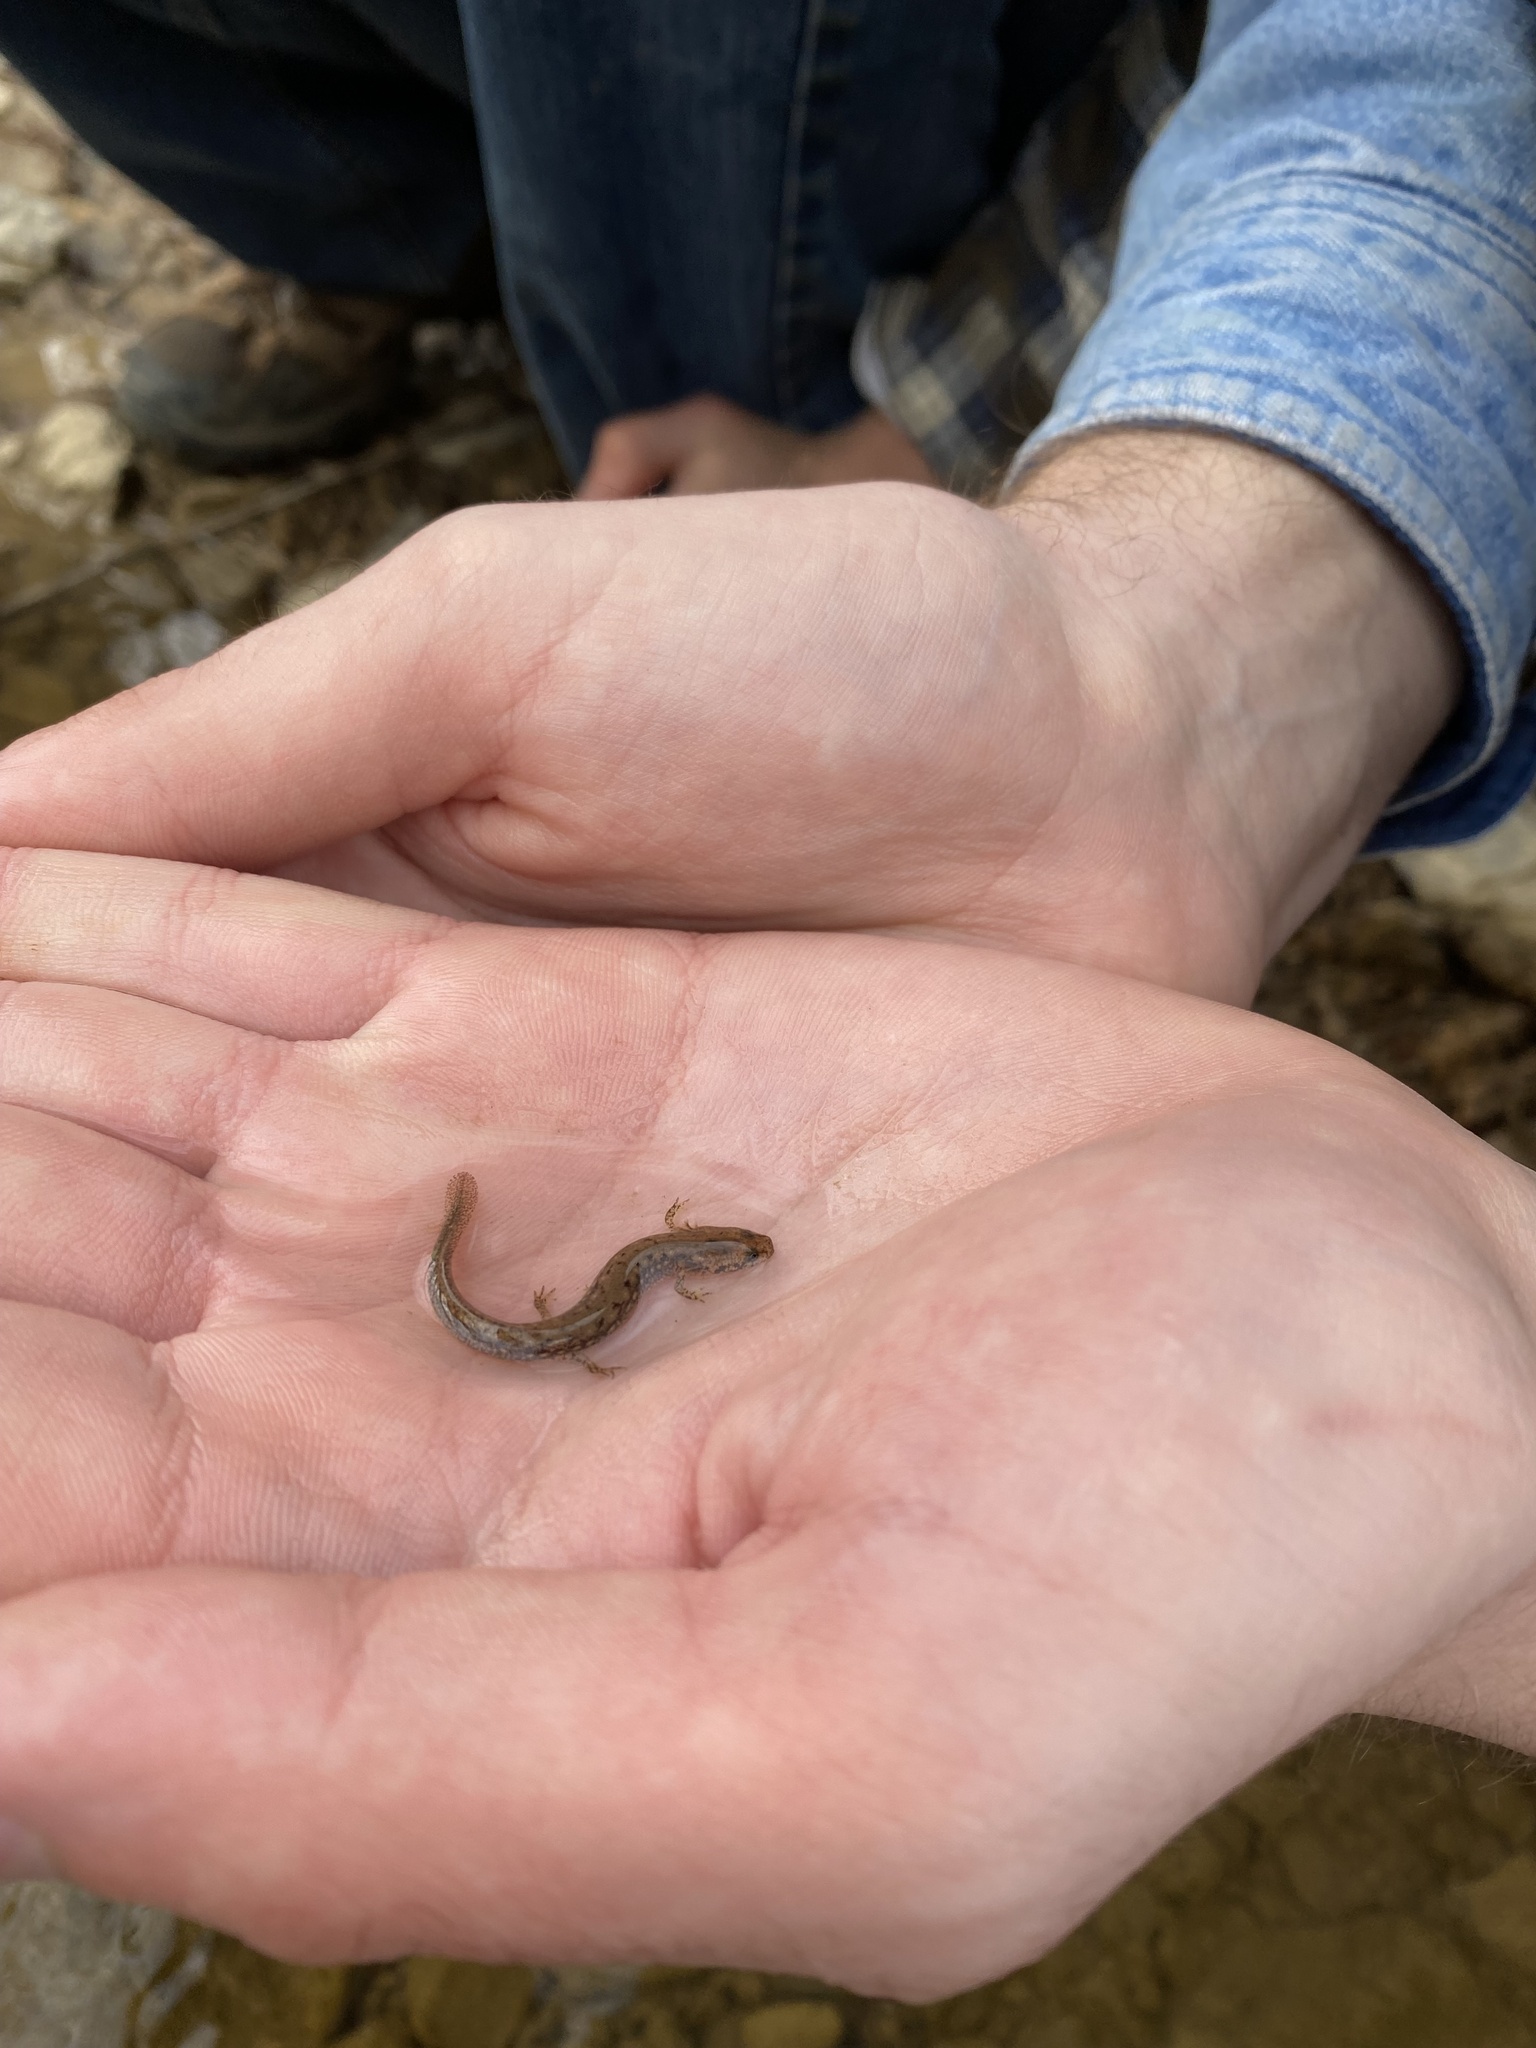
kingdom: Animalia
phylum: Chordata
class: Amphibia
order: Caudata
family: Plethodontidae
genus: Eurycea
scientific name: Eurycea cirrigera
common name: Southern two-lined salamander
